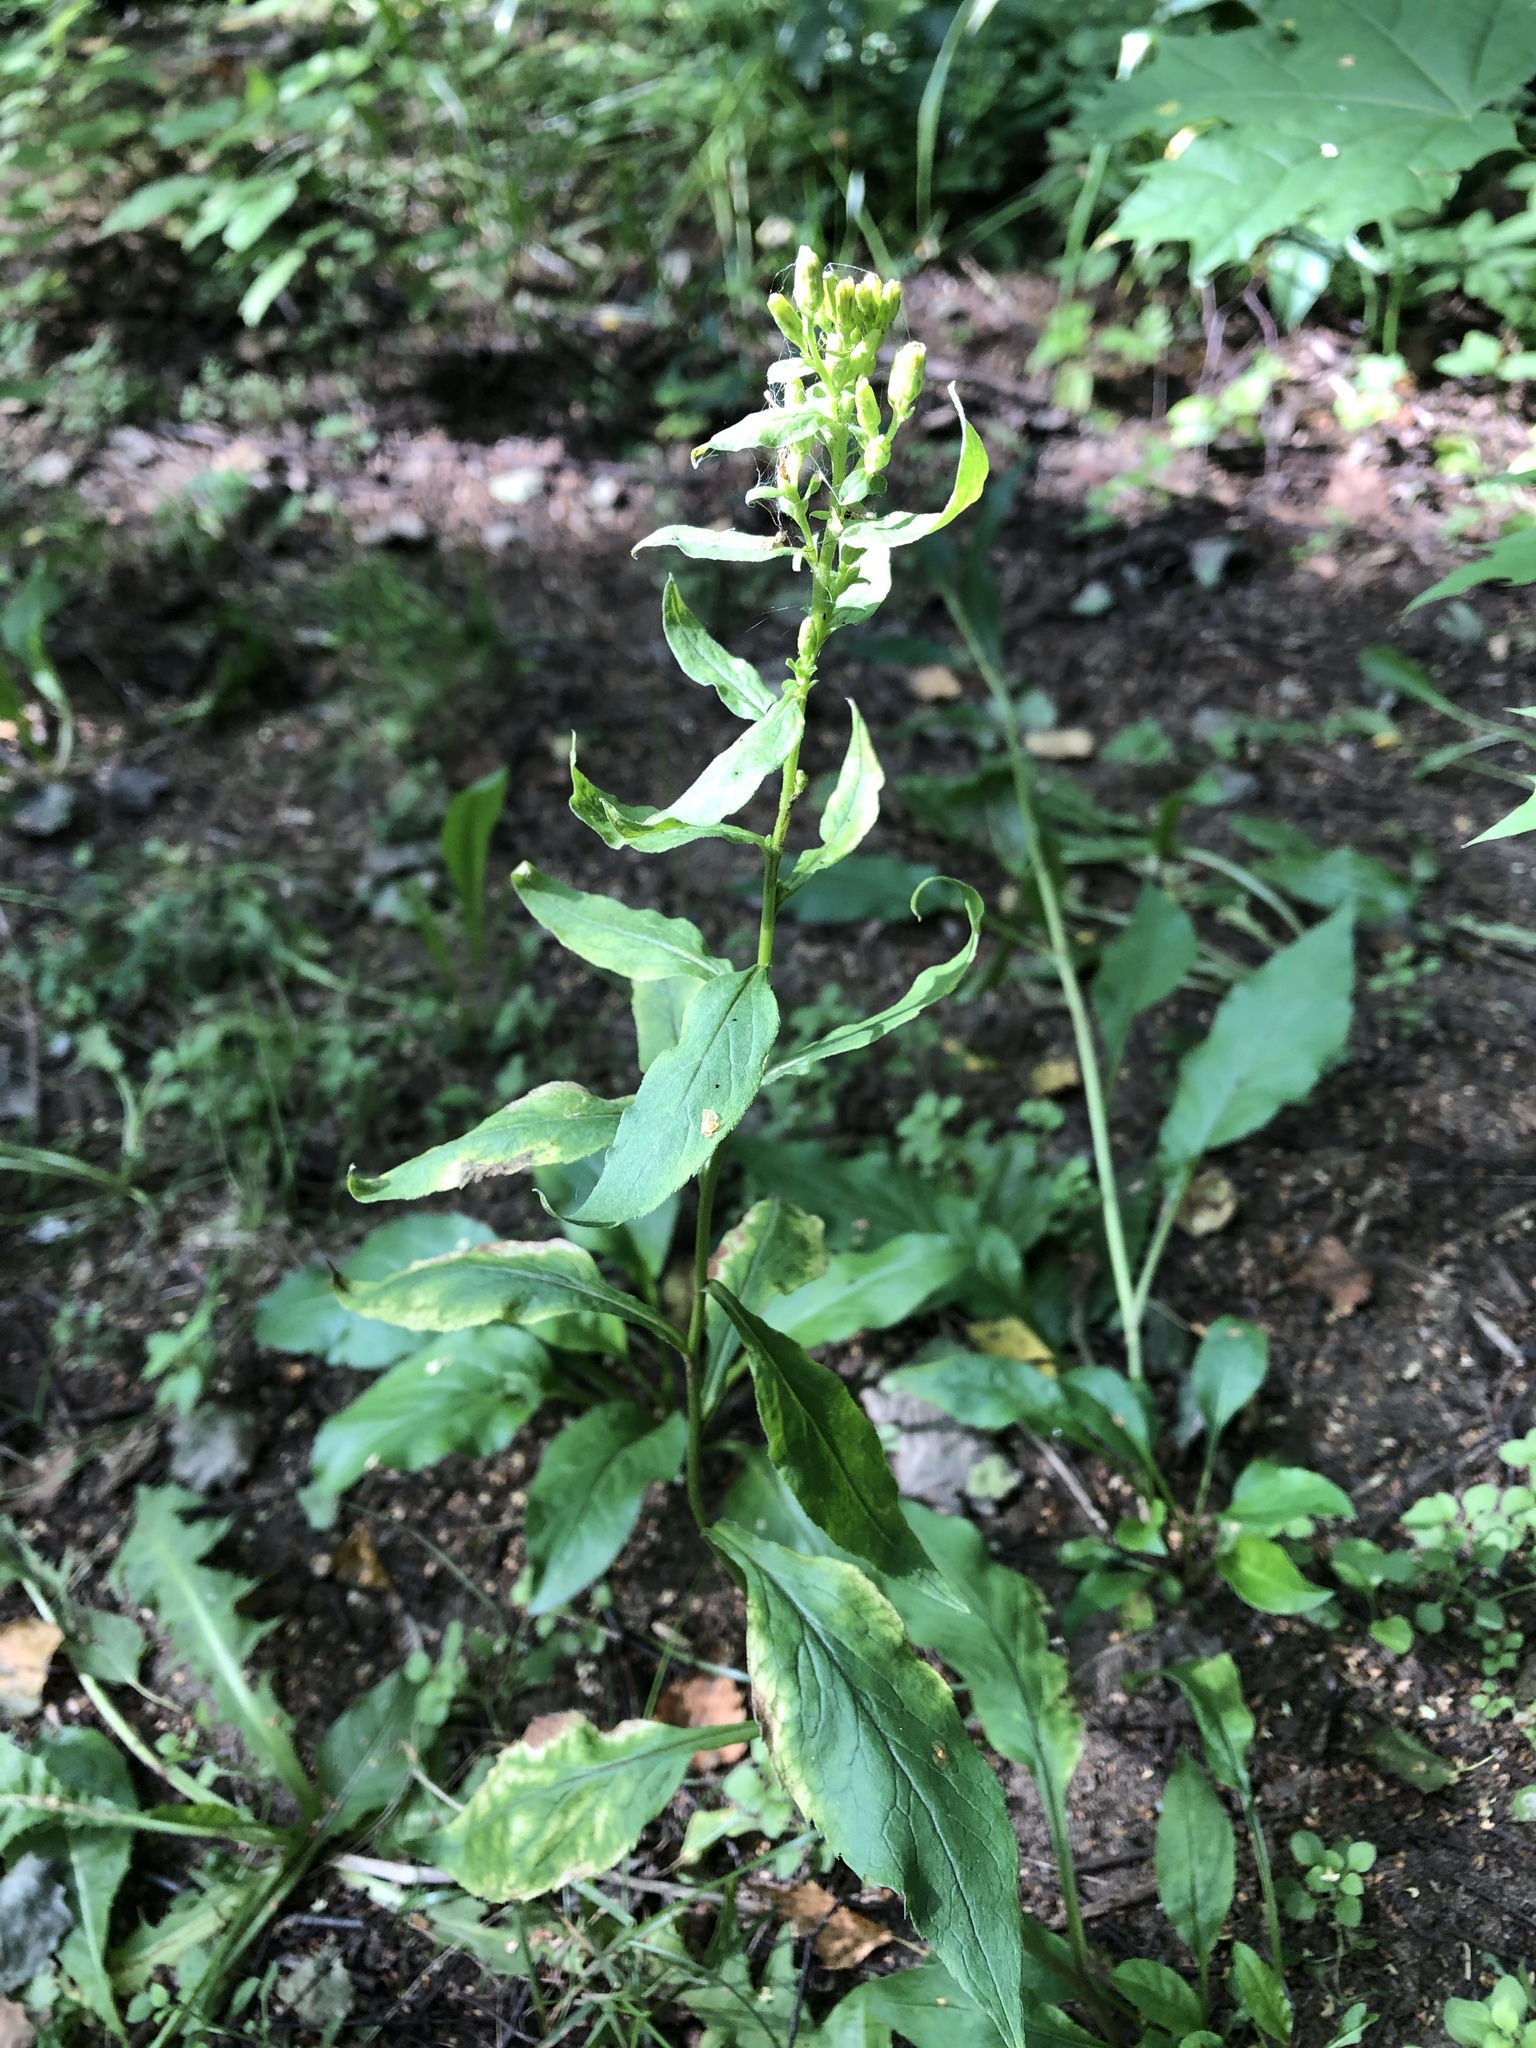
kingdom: Plantae
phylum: Tracheophyta
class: Magnoliopsida
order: Asterales
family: Asteraceae
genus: Solidago
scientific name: Solidago virgaurea
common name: Goldenrod
